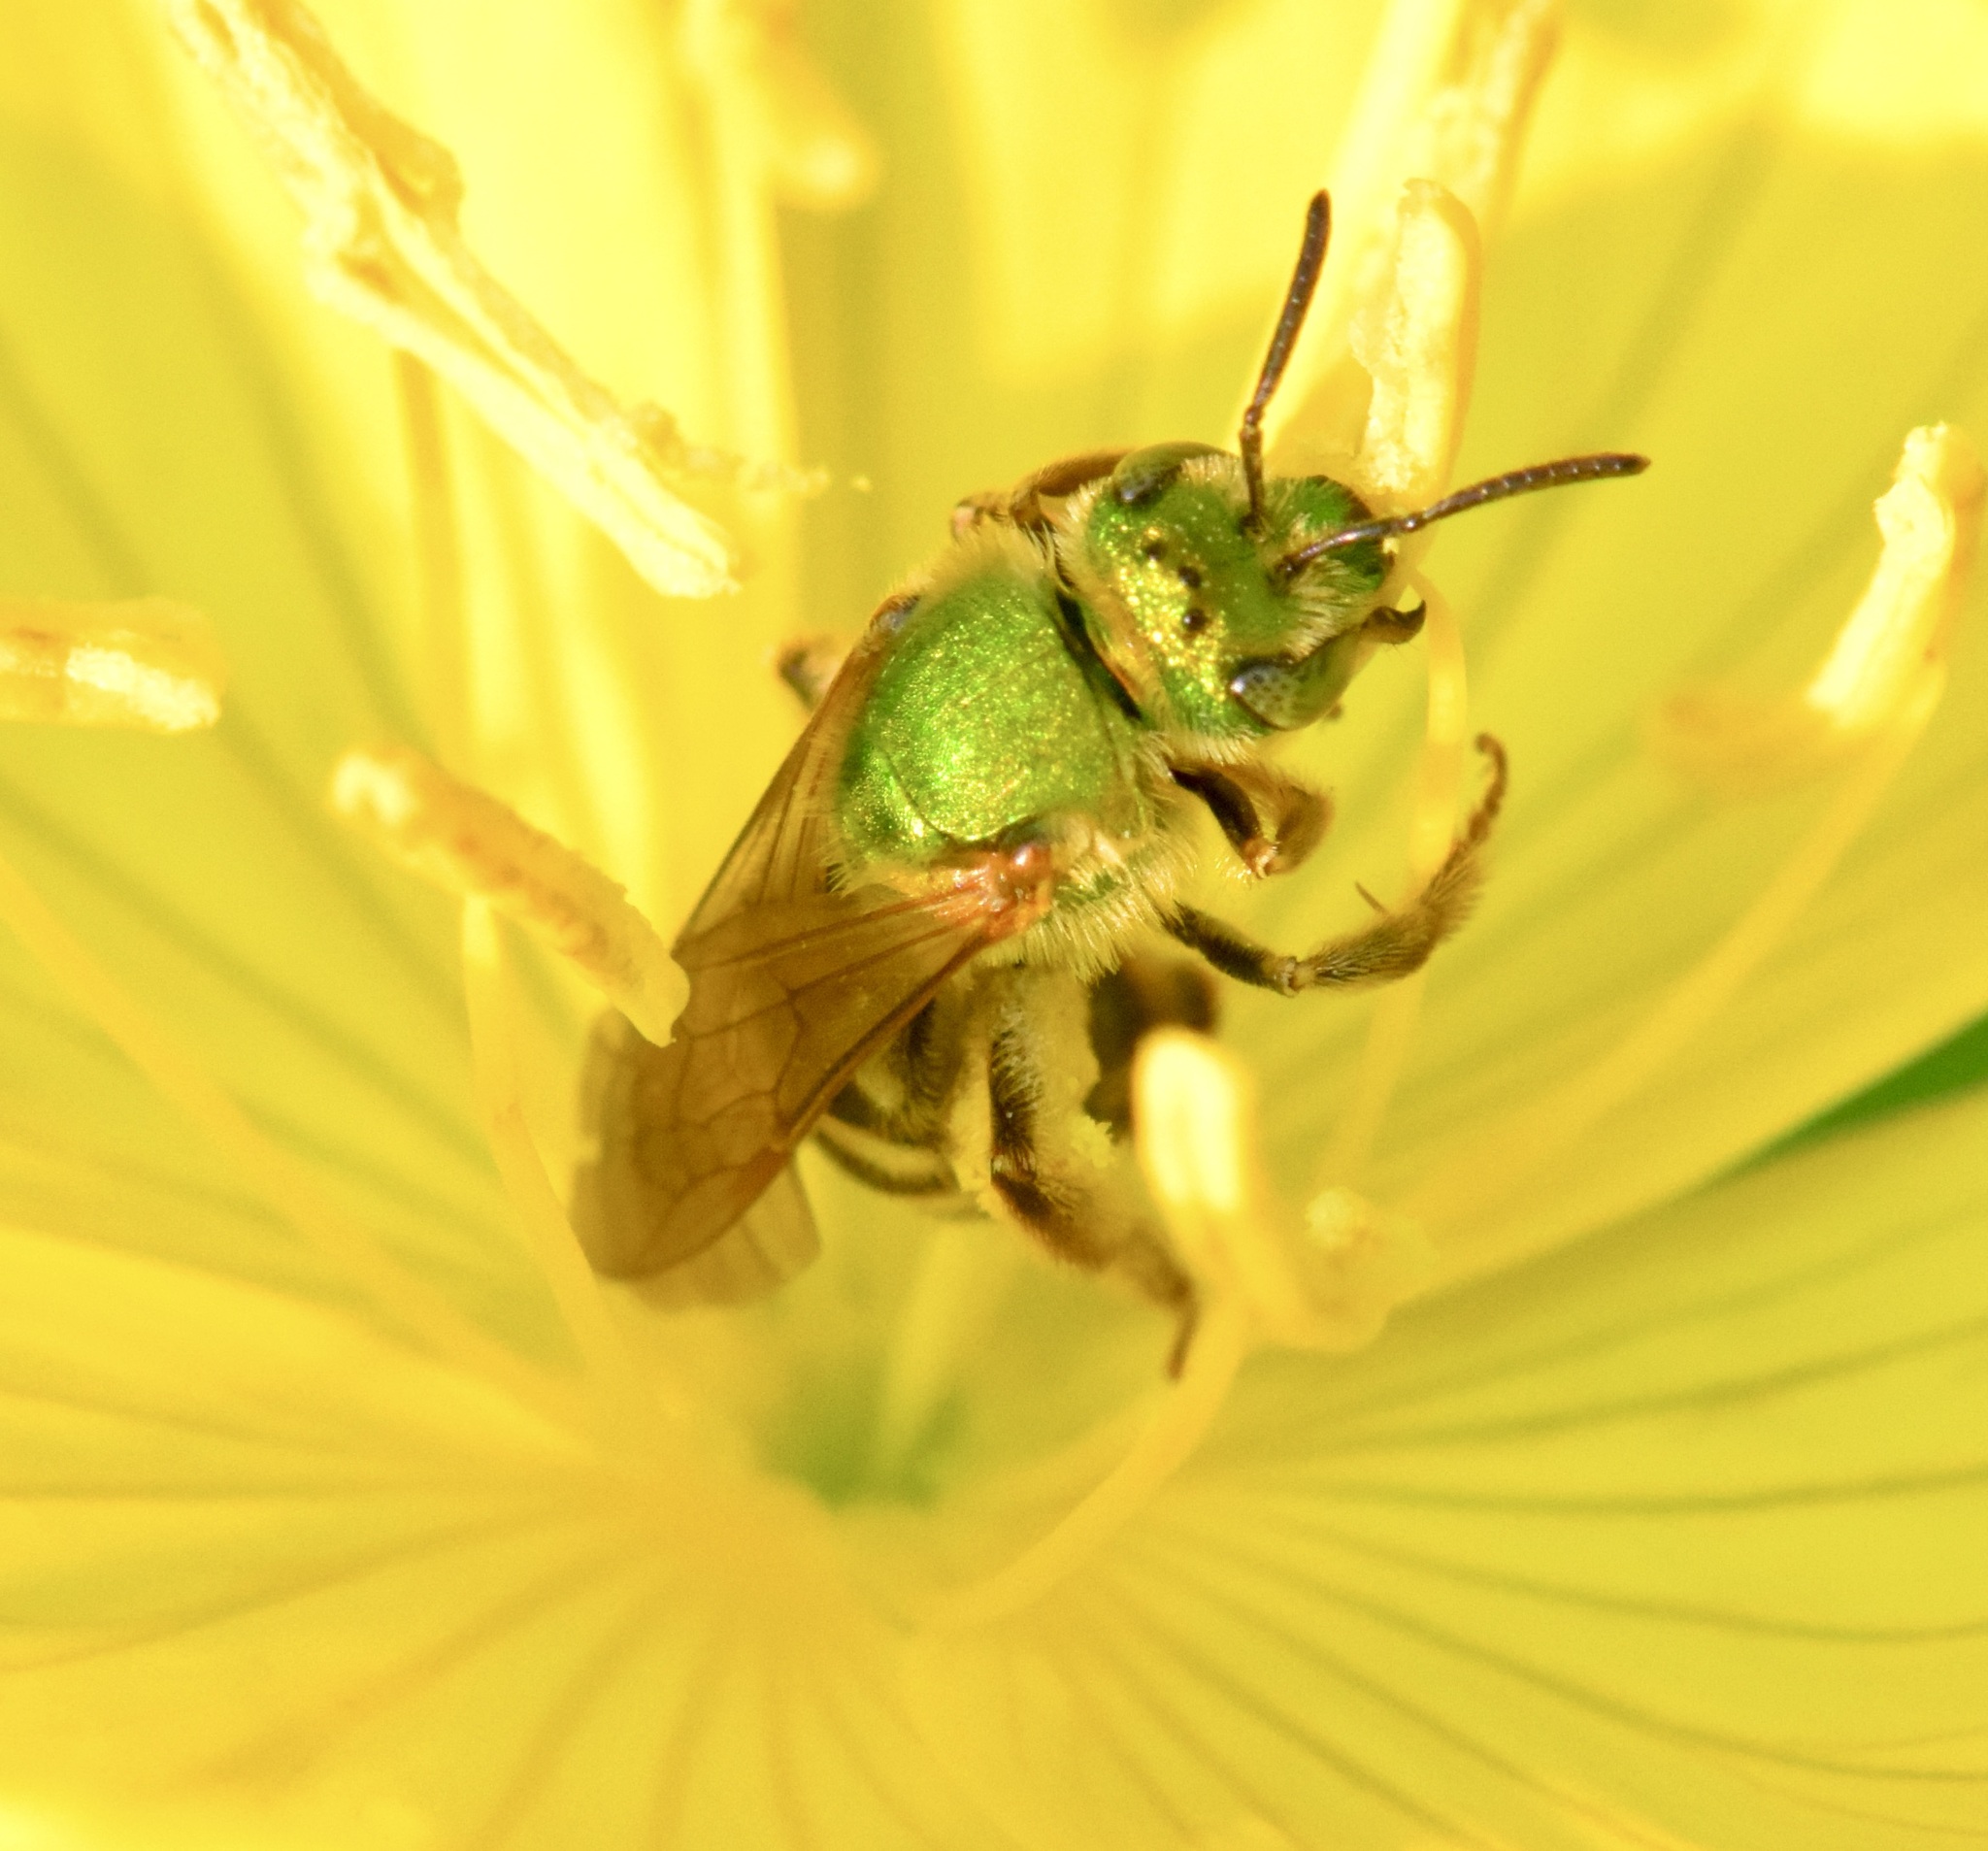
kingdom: Animalia
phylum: Arthropoda
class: Insecta
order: Hymenoptera
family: Halictidae
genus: Agapostemon
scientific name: Agapostemon virescens
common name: Bicolored striped sweat bee
